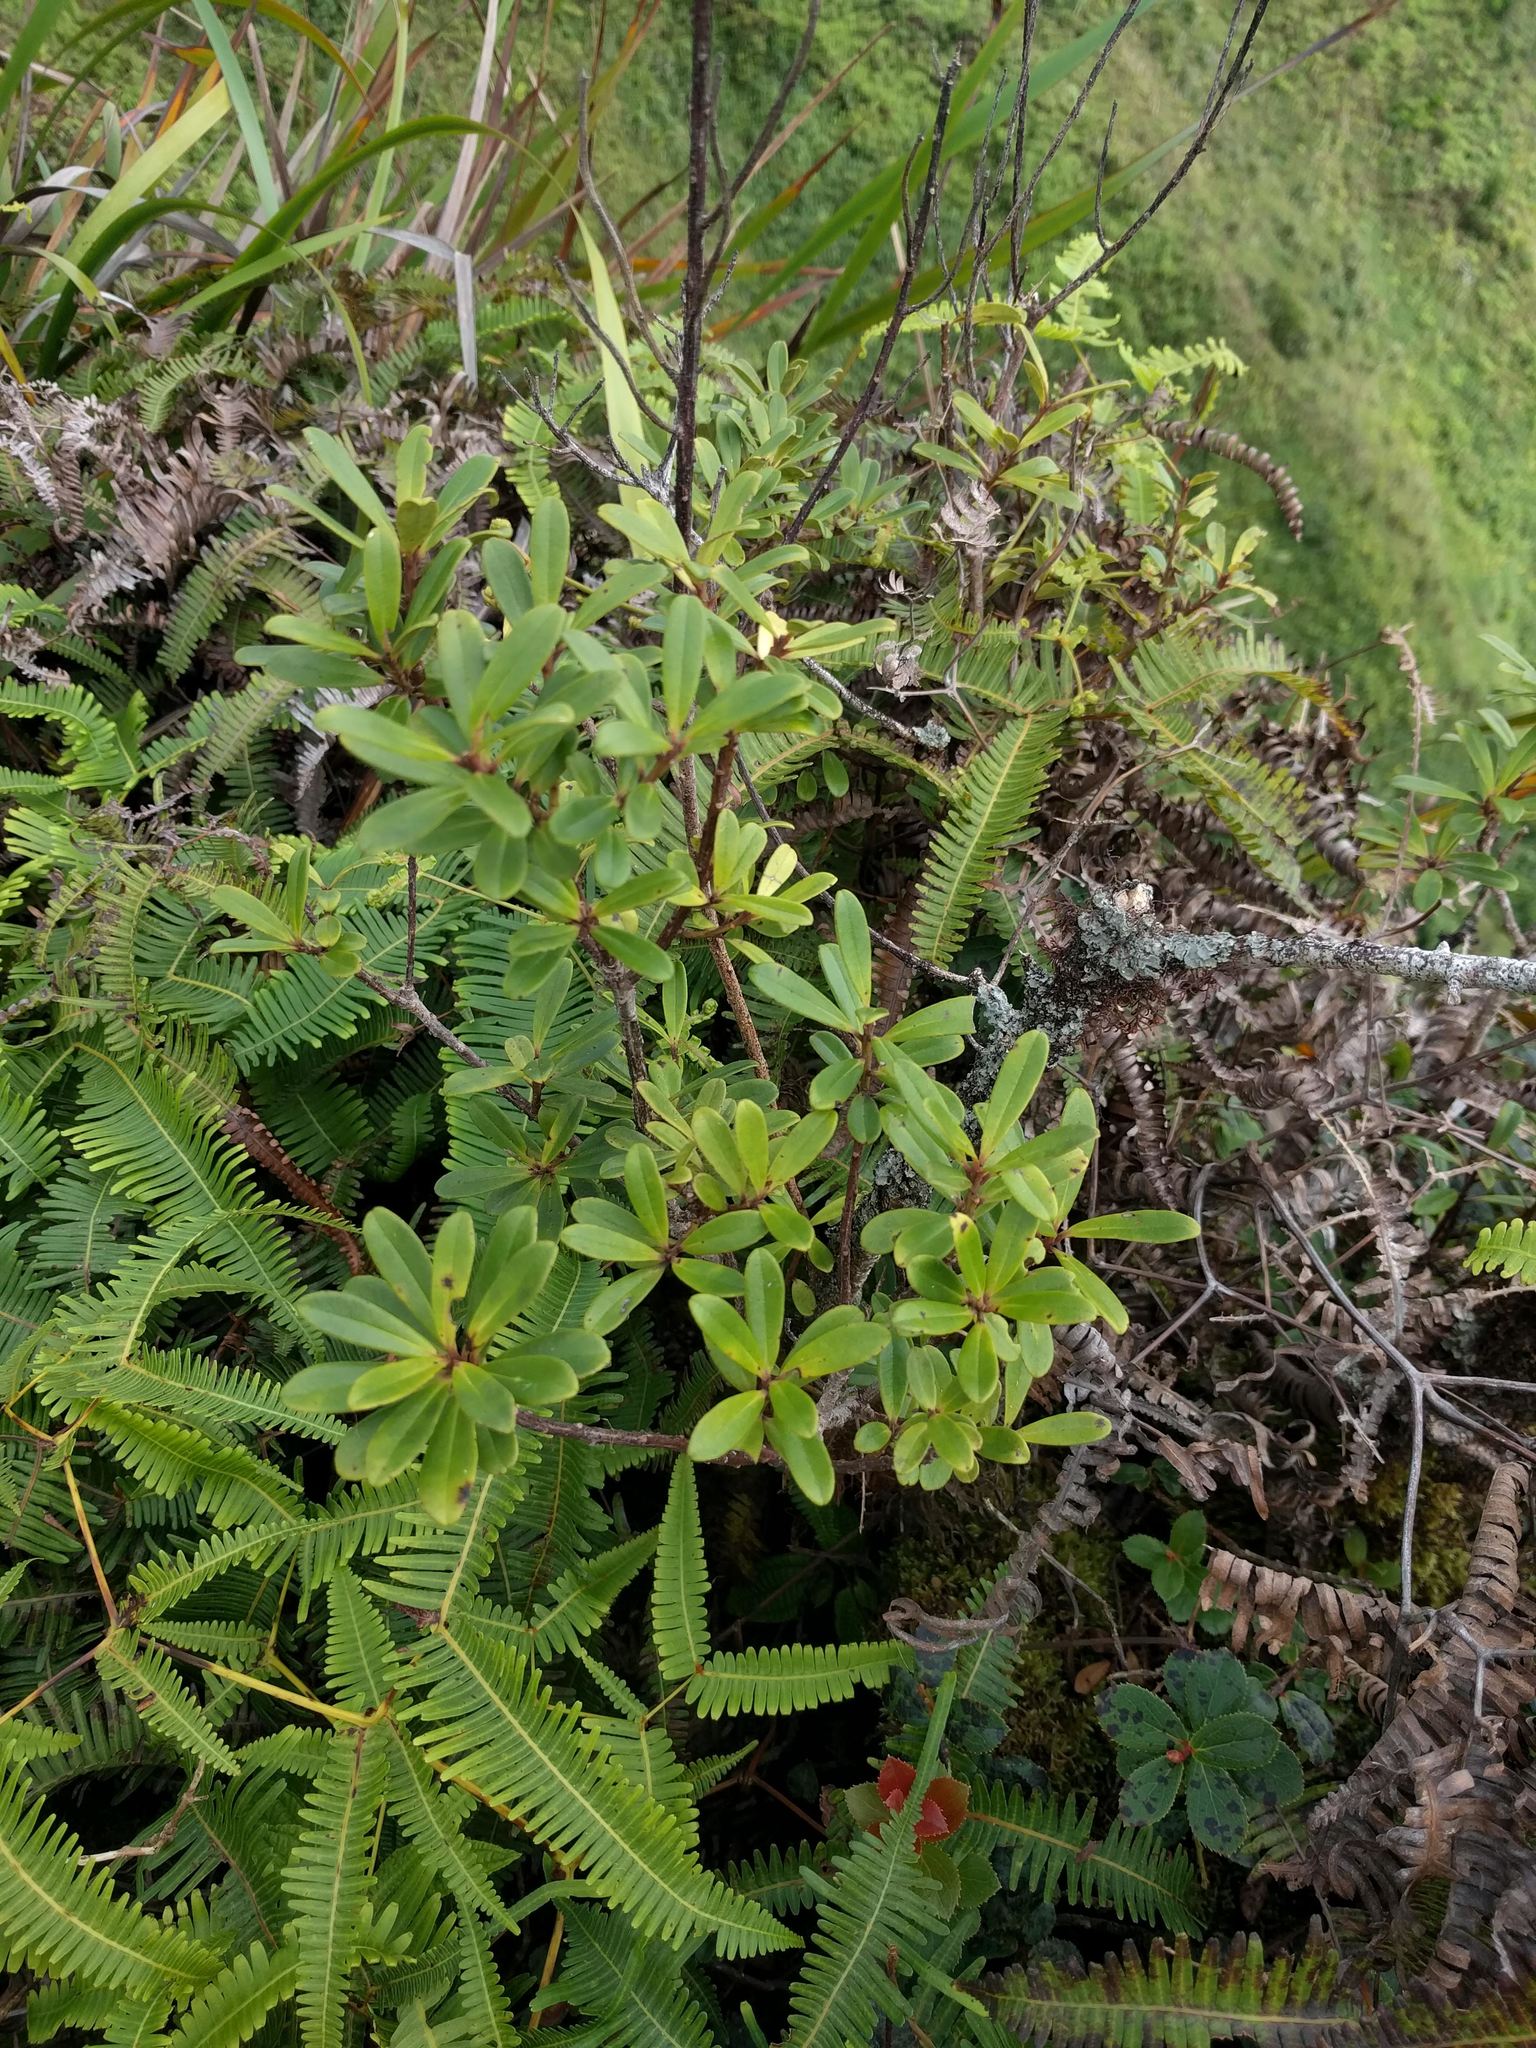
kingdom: Plantae
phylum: Tracheophyta
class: Magnoliopsida
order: Ericales
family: Primulaceae
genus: Myrsine
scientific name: Myrsine sandwicensis
